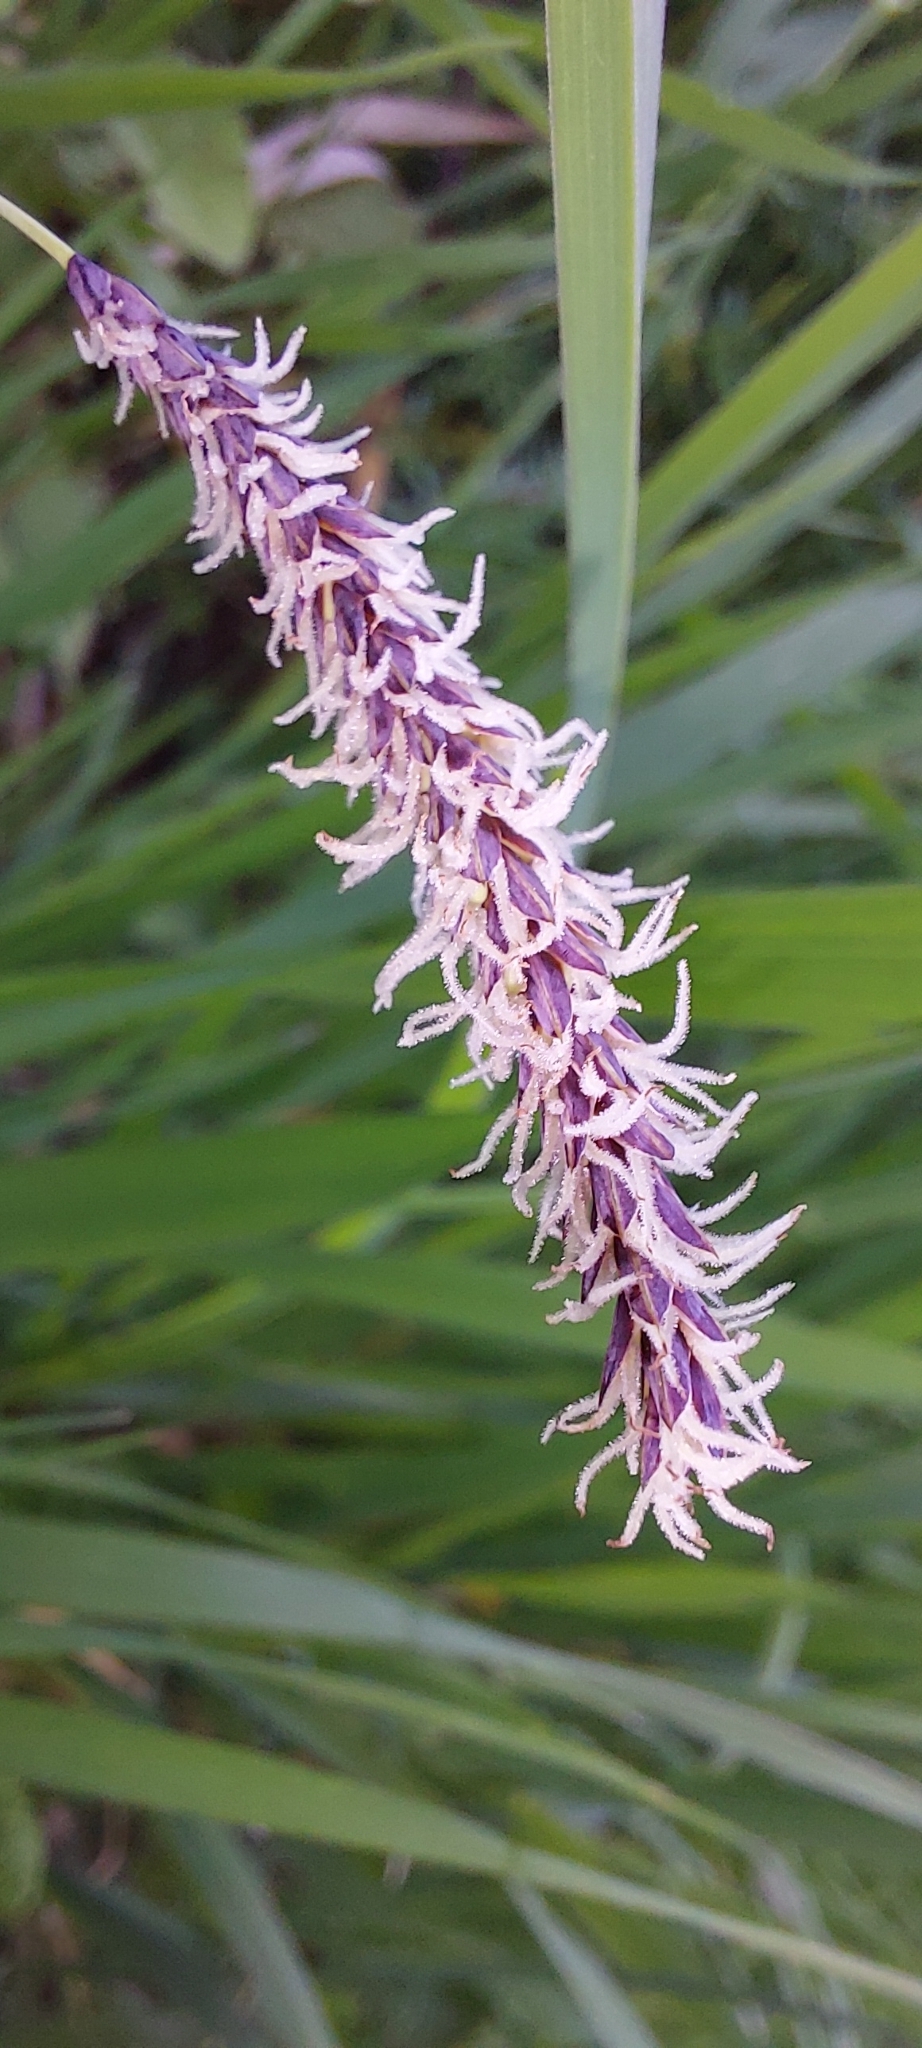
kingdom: Plantae
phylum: Tracheophyta
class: Liliopsida
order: Poales
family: Cyperaceae
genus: Carex
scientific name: Carex flacca
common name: Glaucous sedge
